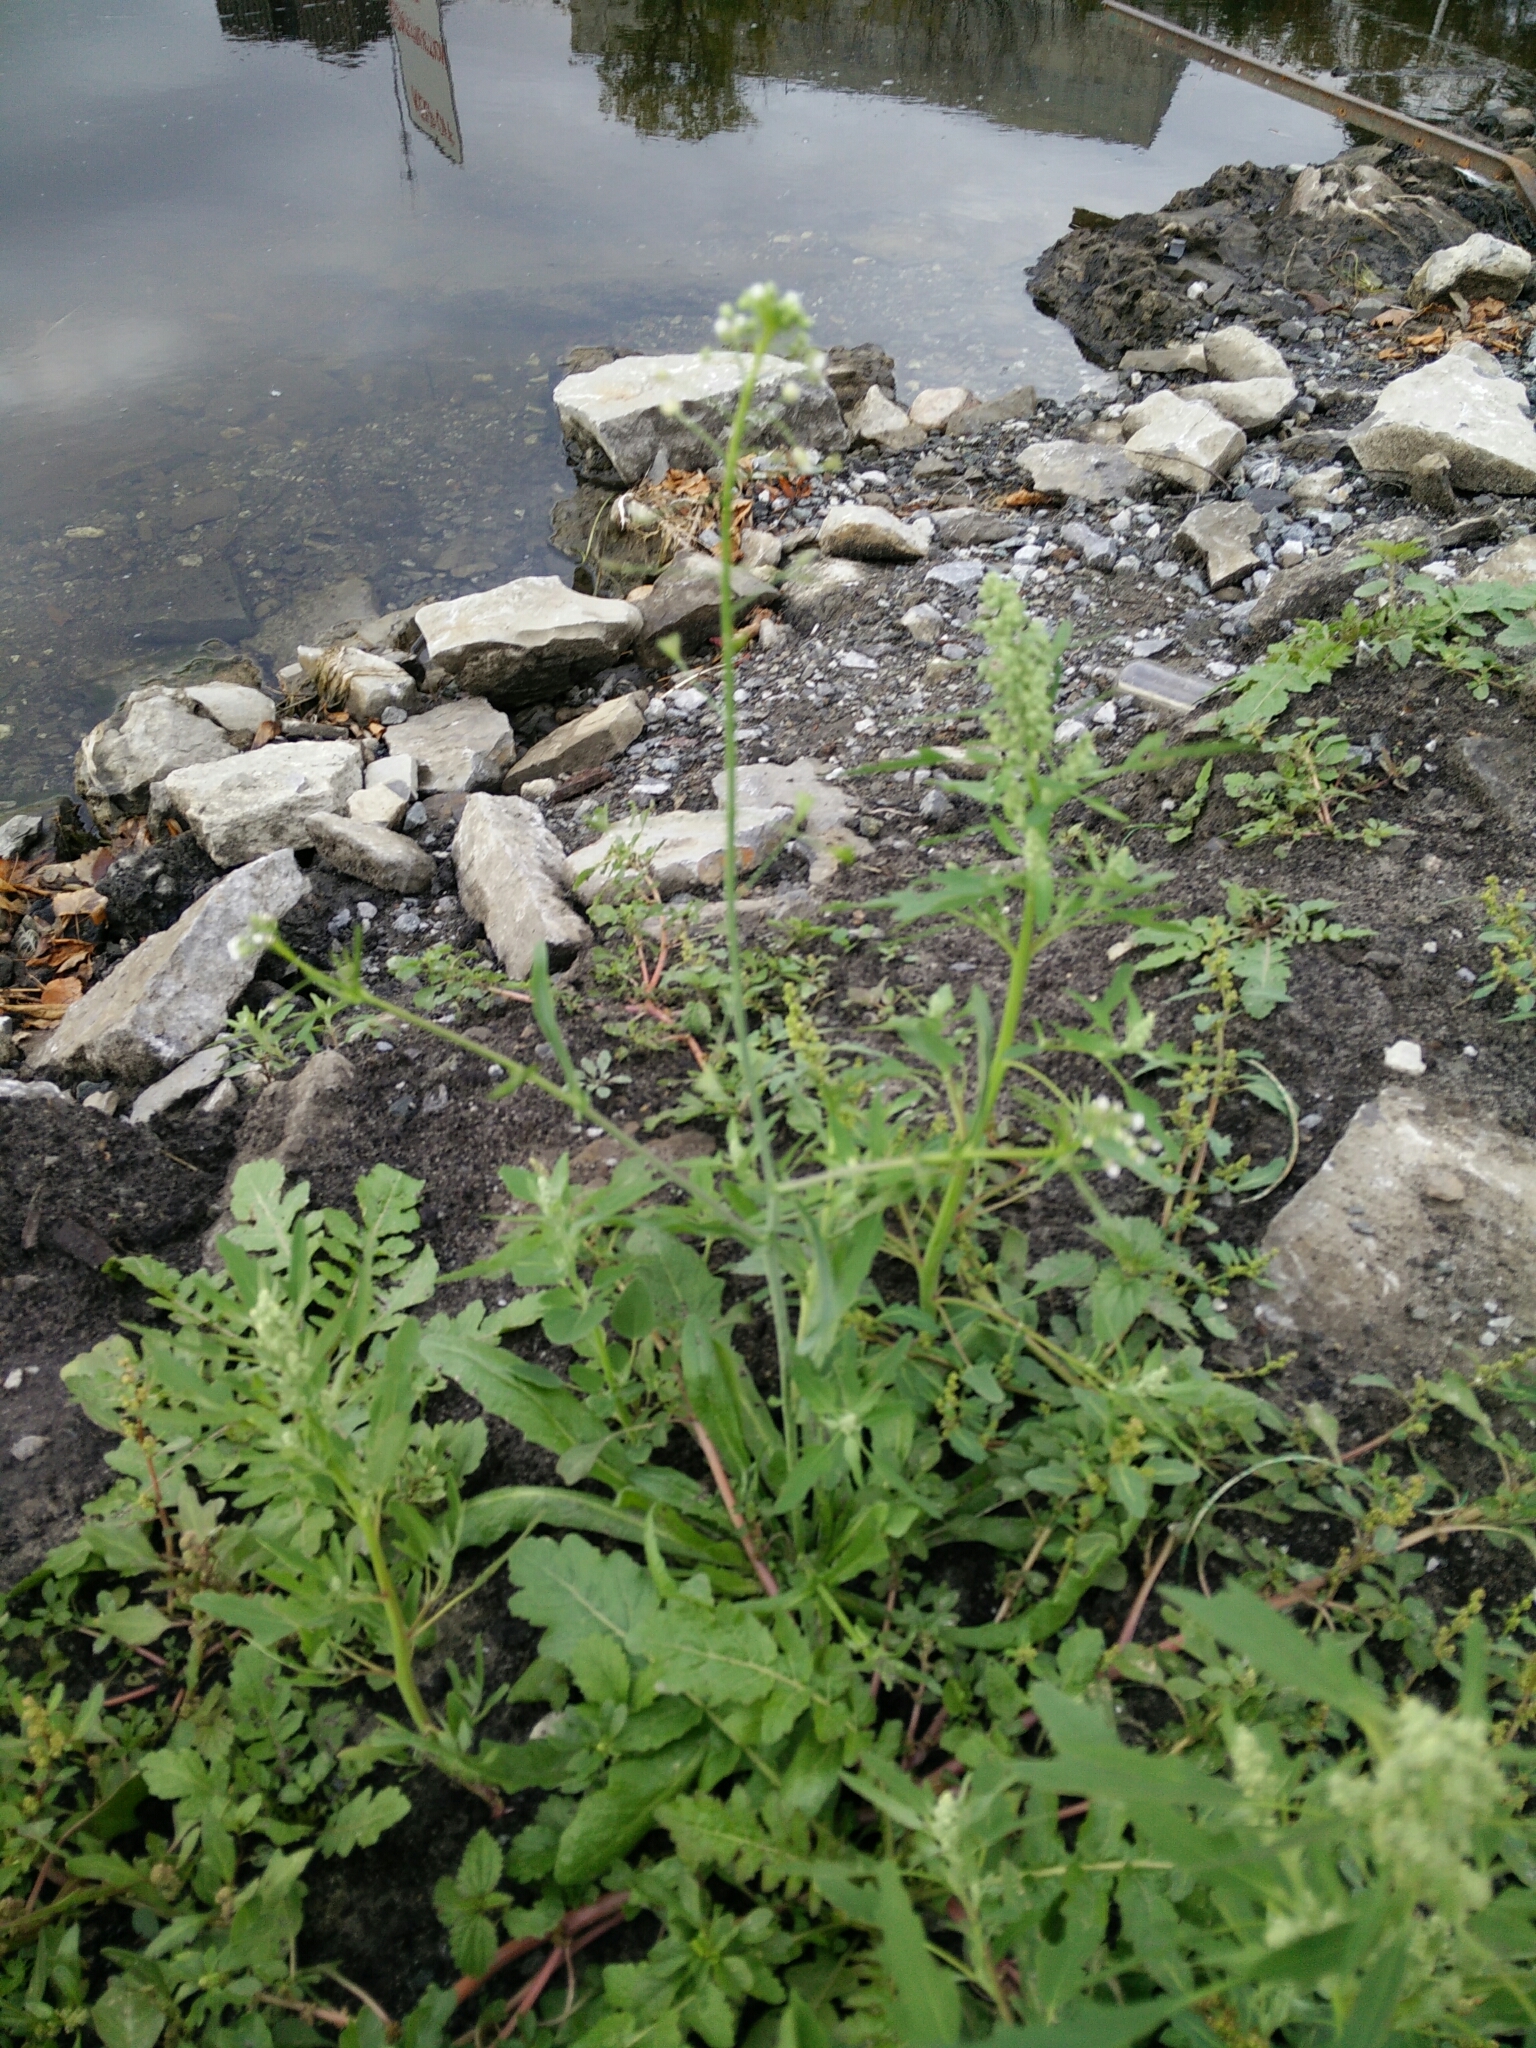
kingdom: Plantae
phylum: Tracheophyta
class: Magnoliopsida
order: Brassicales
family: Brassicaceae
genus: Capsella
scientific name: Capsella bursa-pastoris
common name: Shepherd's purse
